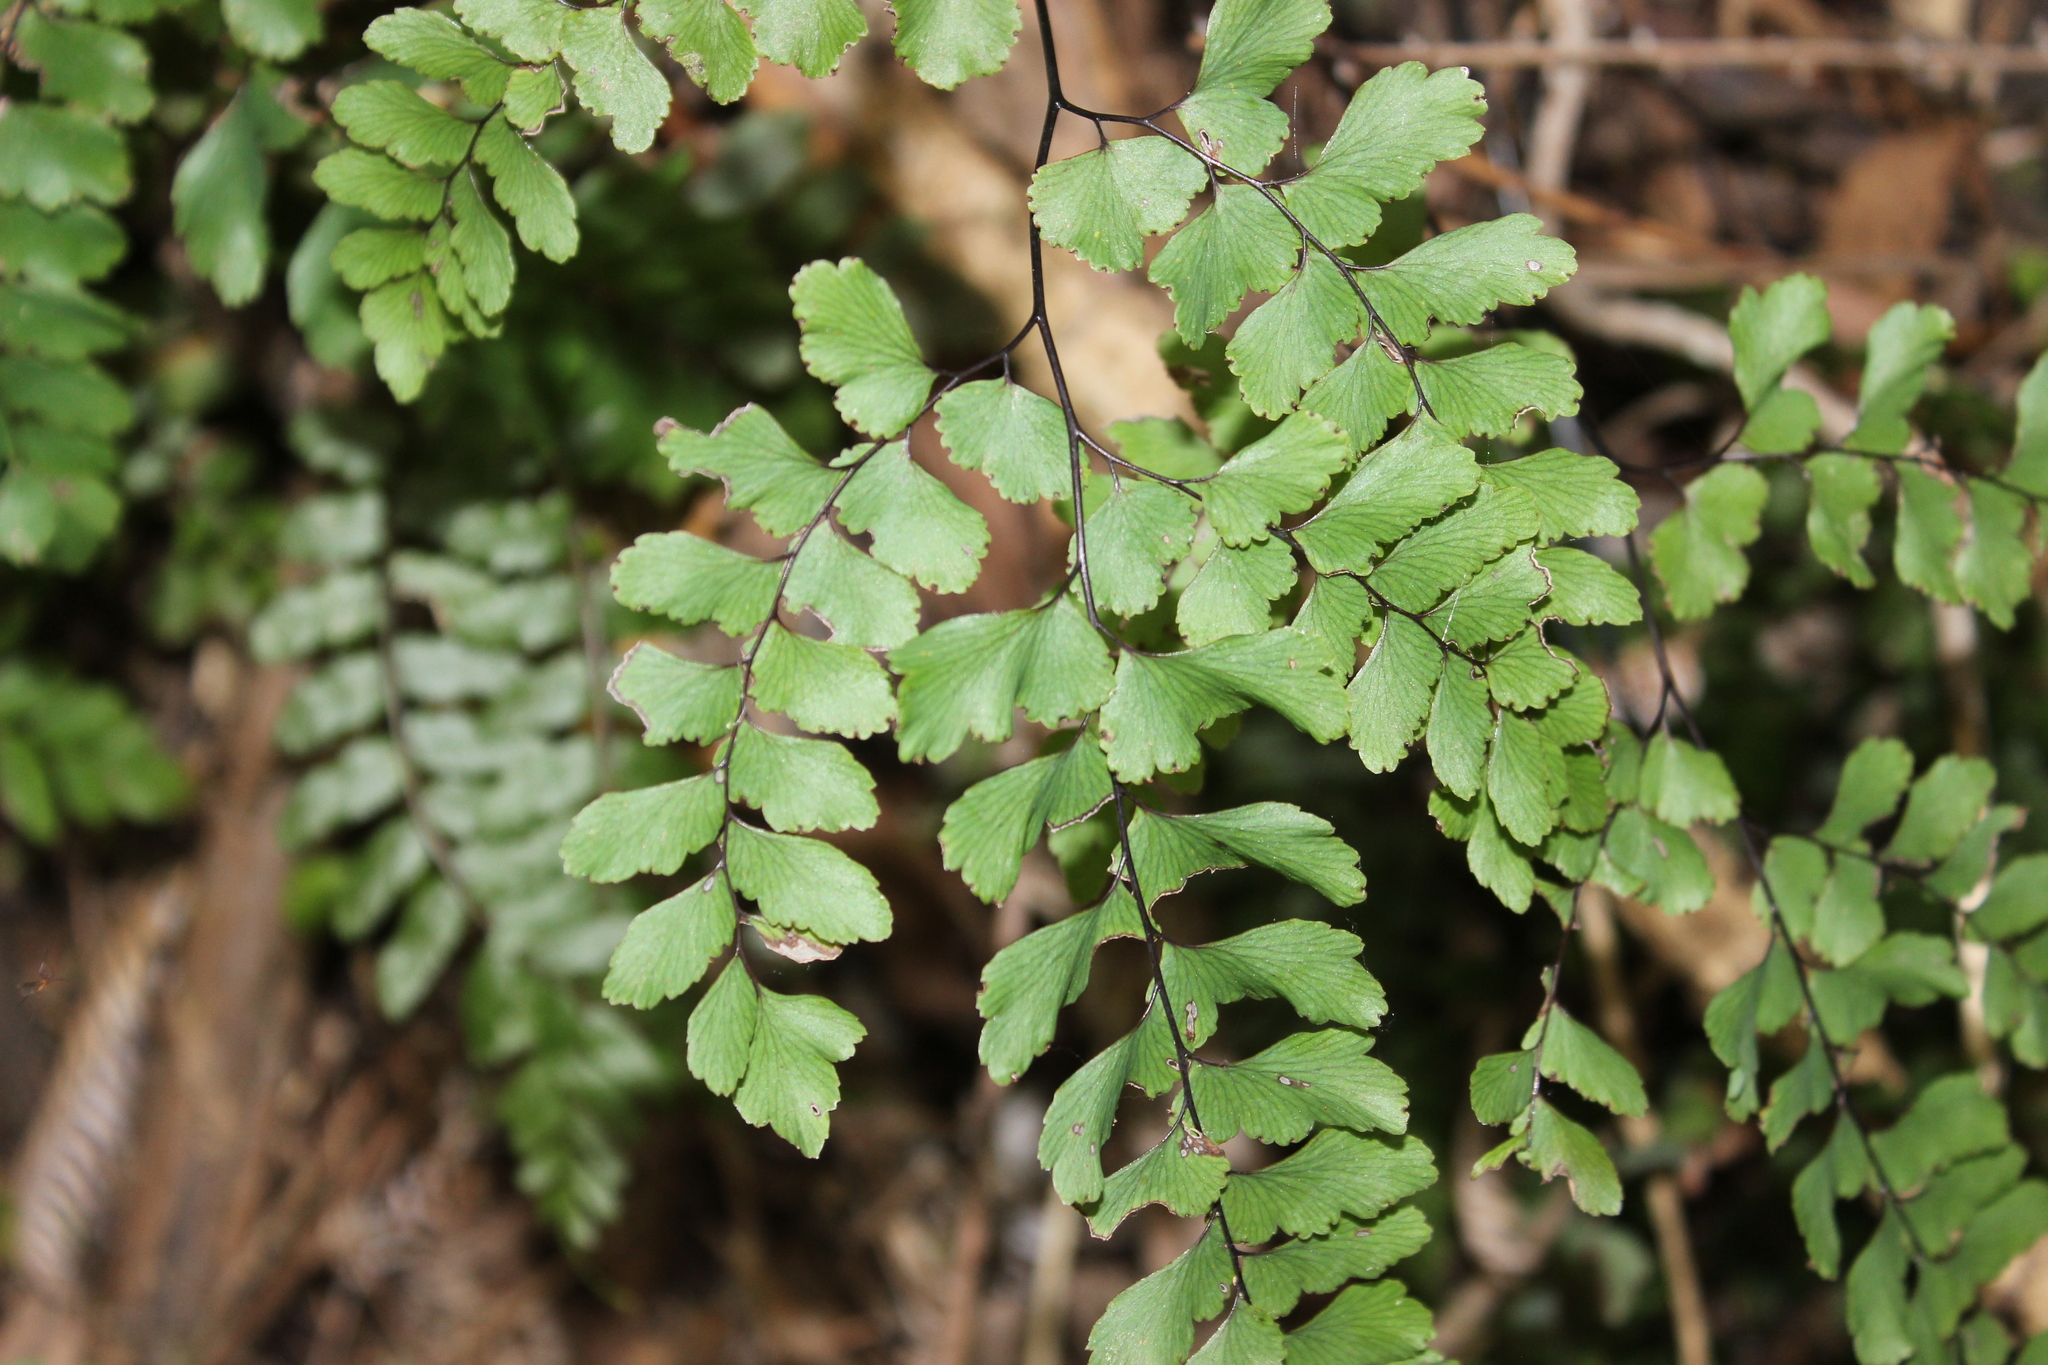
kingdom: Plantae
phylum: Tracheophyta
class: Polypodiopsida
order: Polypodiales
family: Pteridaceae
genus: Adiantum
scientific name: Adiantum cunninghamii
